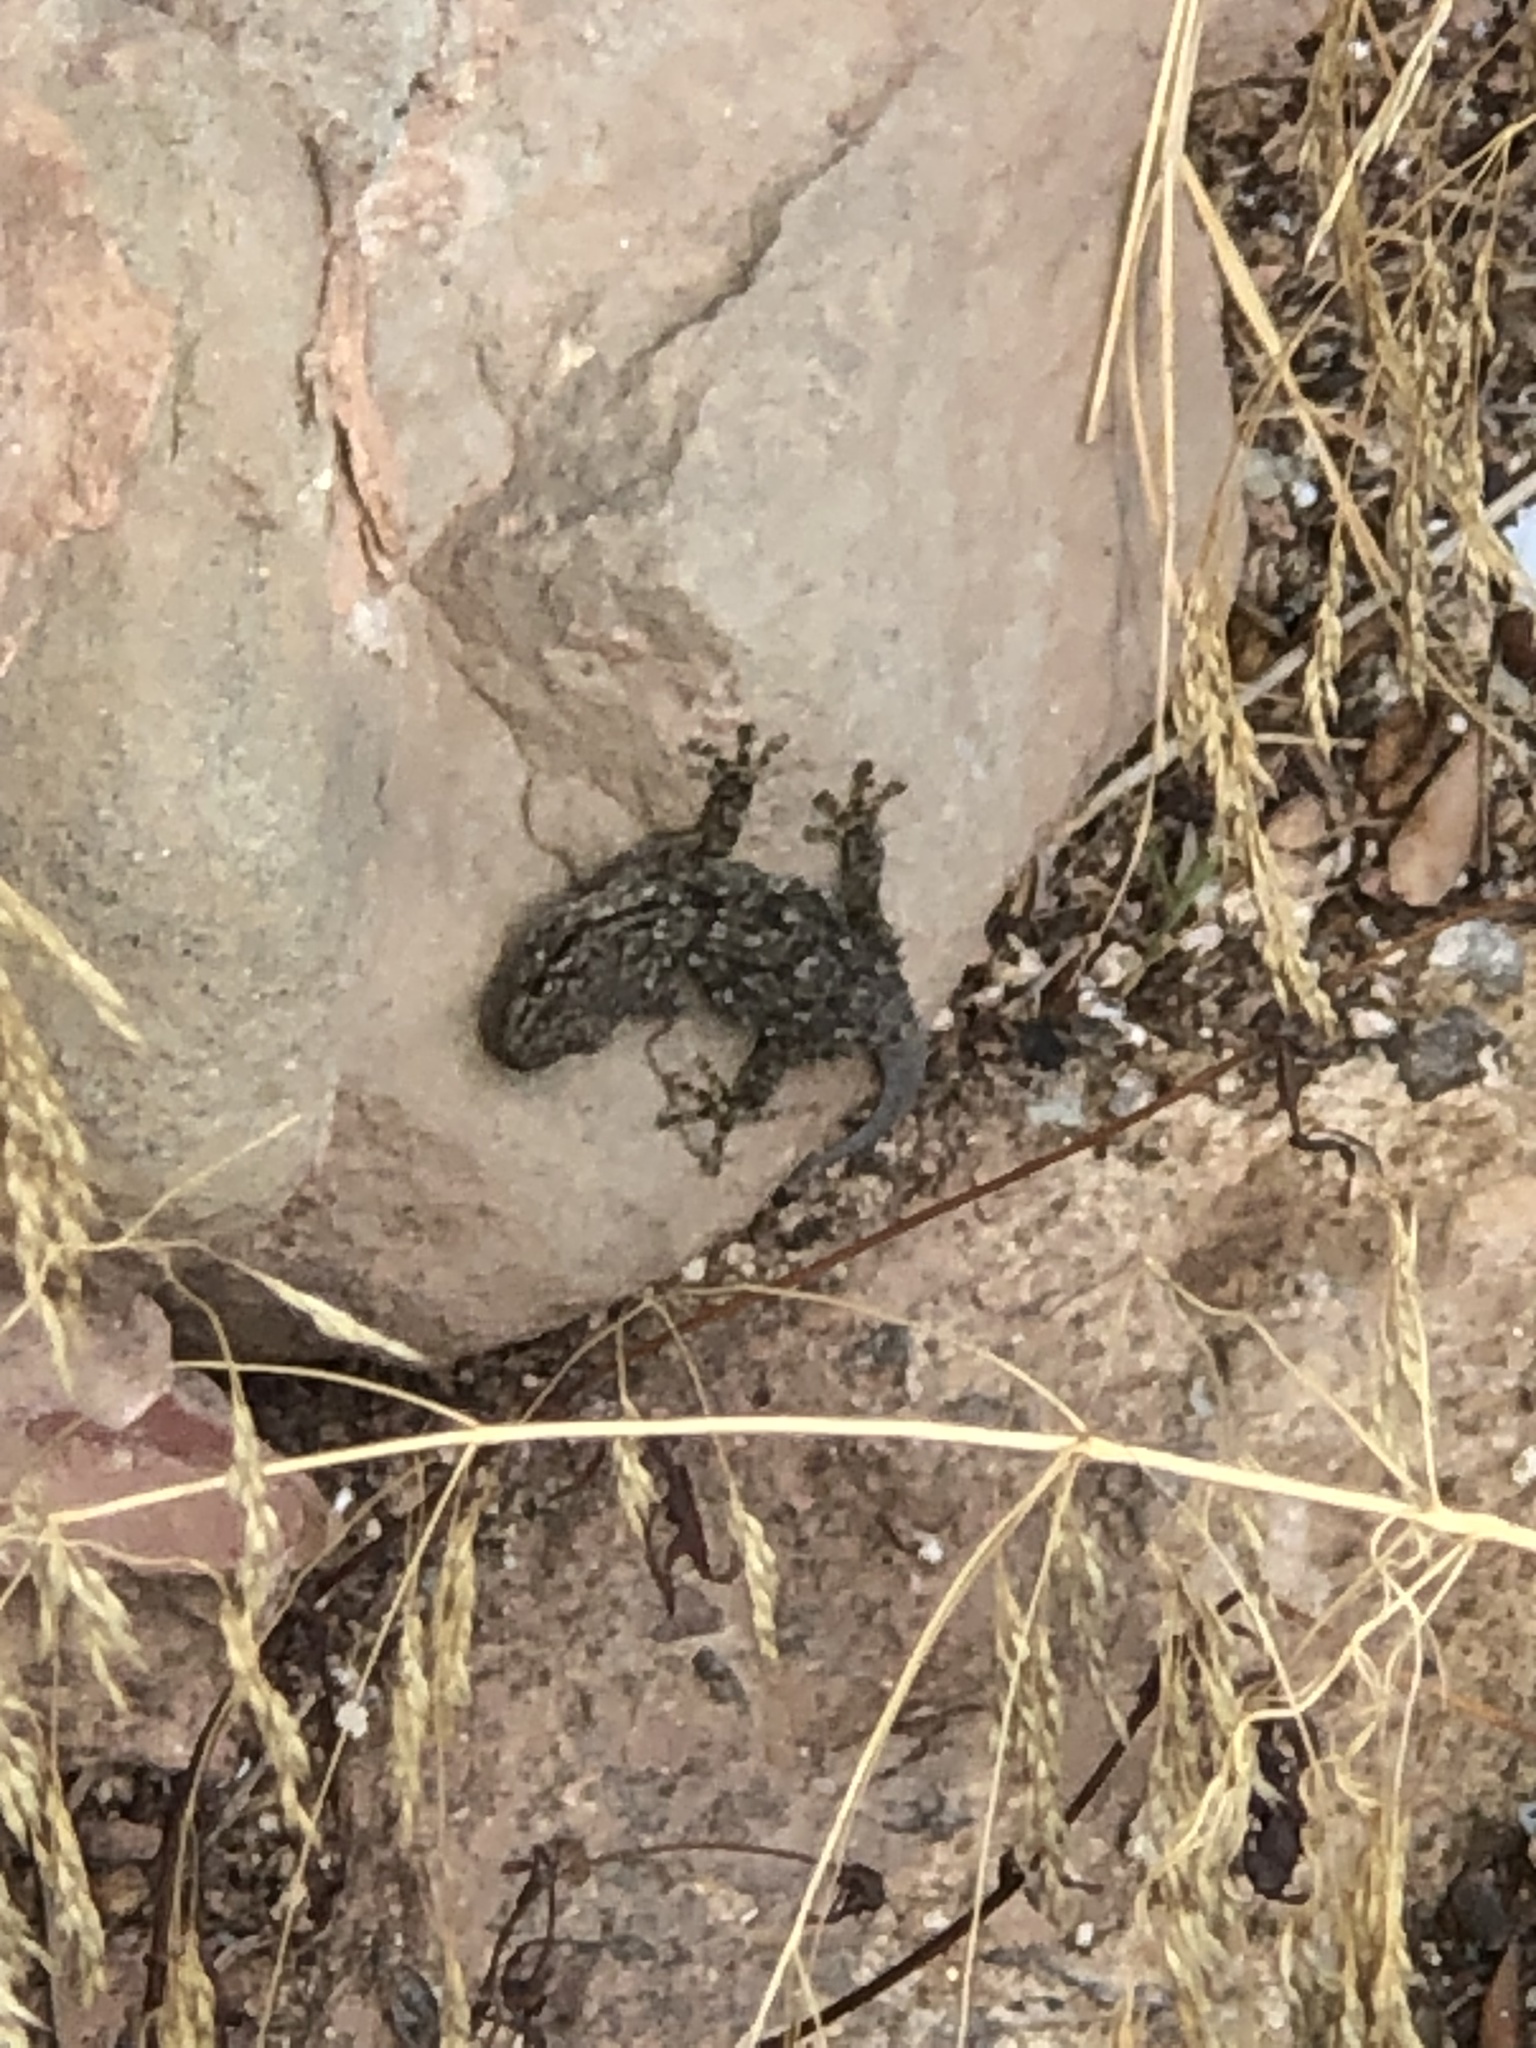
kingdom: Animalia
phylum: Chordata
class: Squamata
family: Phyllodactylidae
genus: Tarentola
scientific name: Tarentola mauritanica
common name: Moorish gecko
